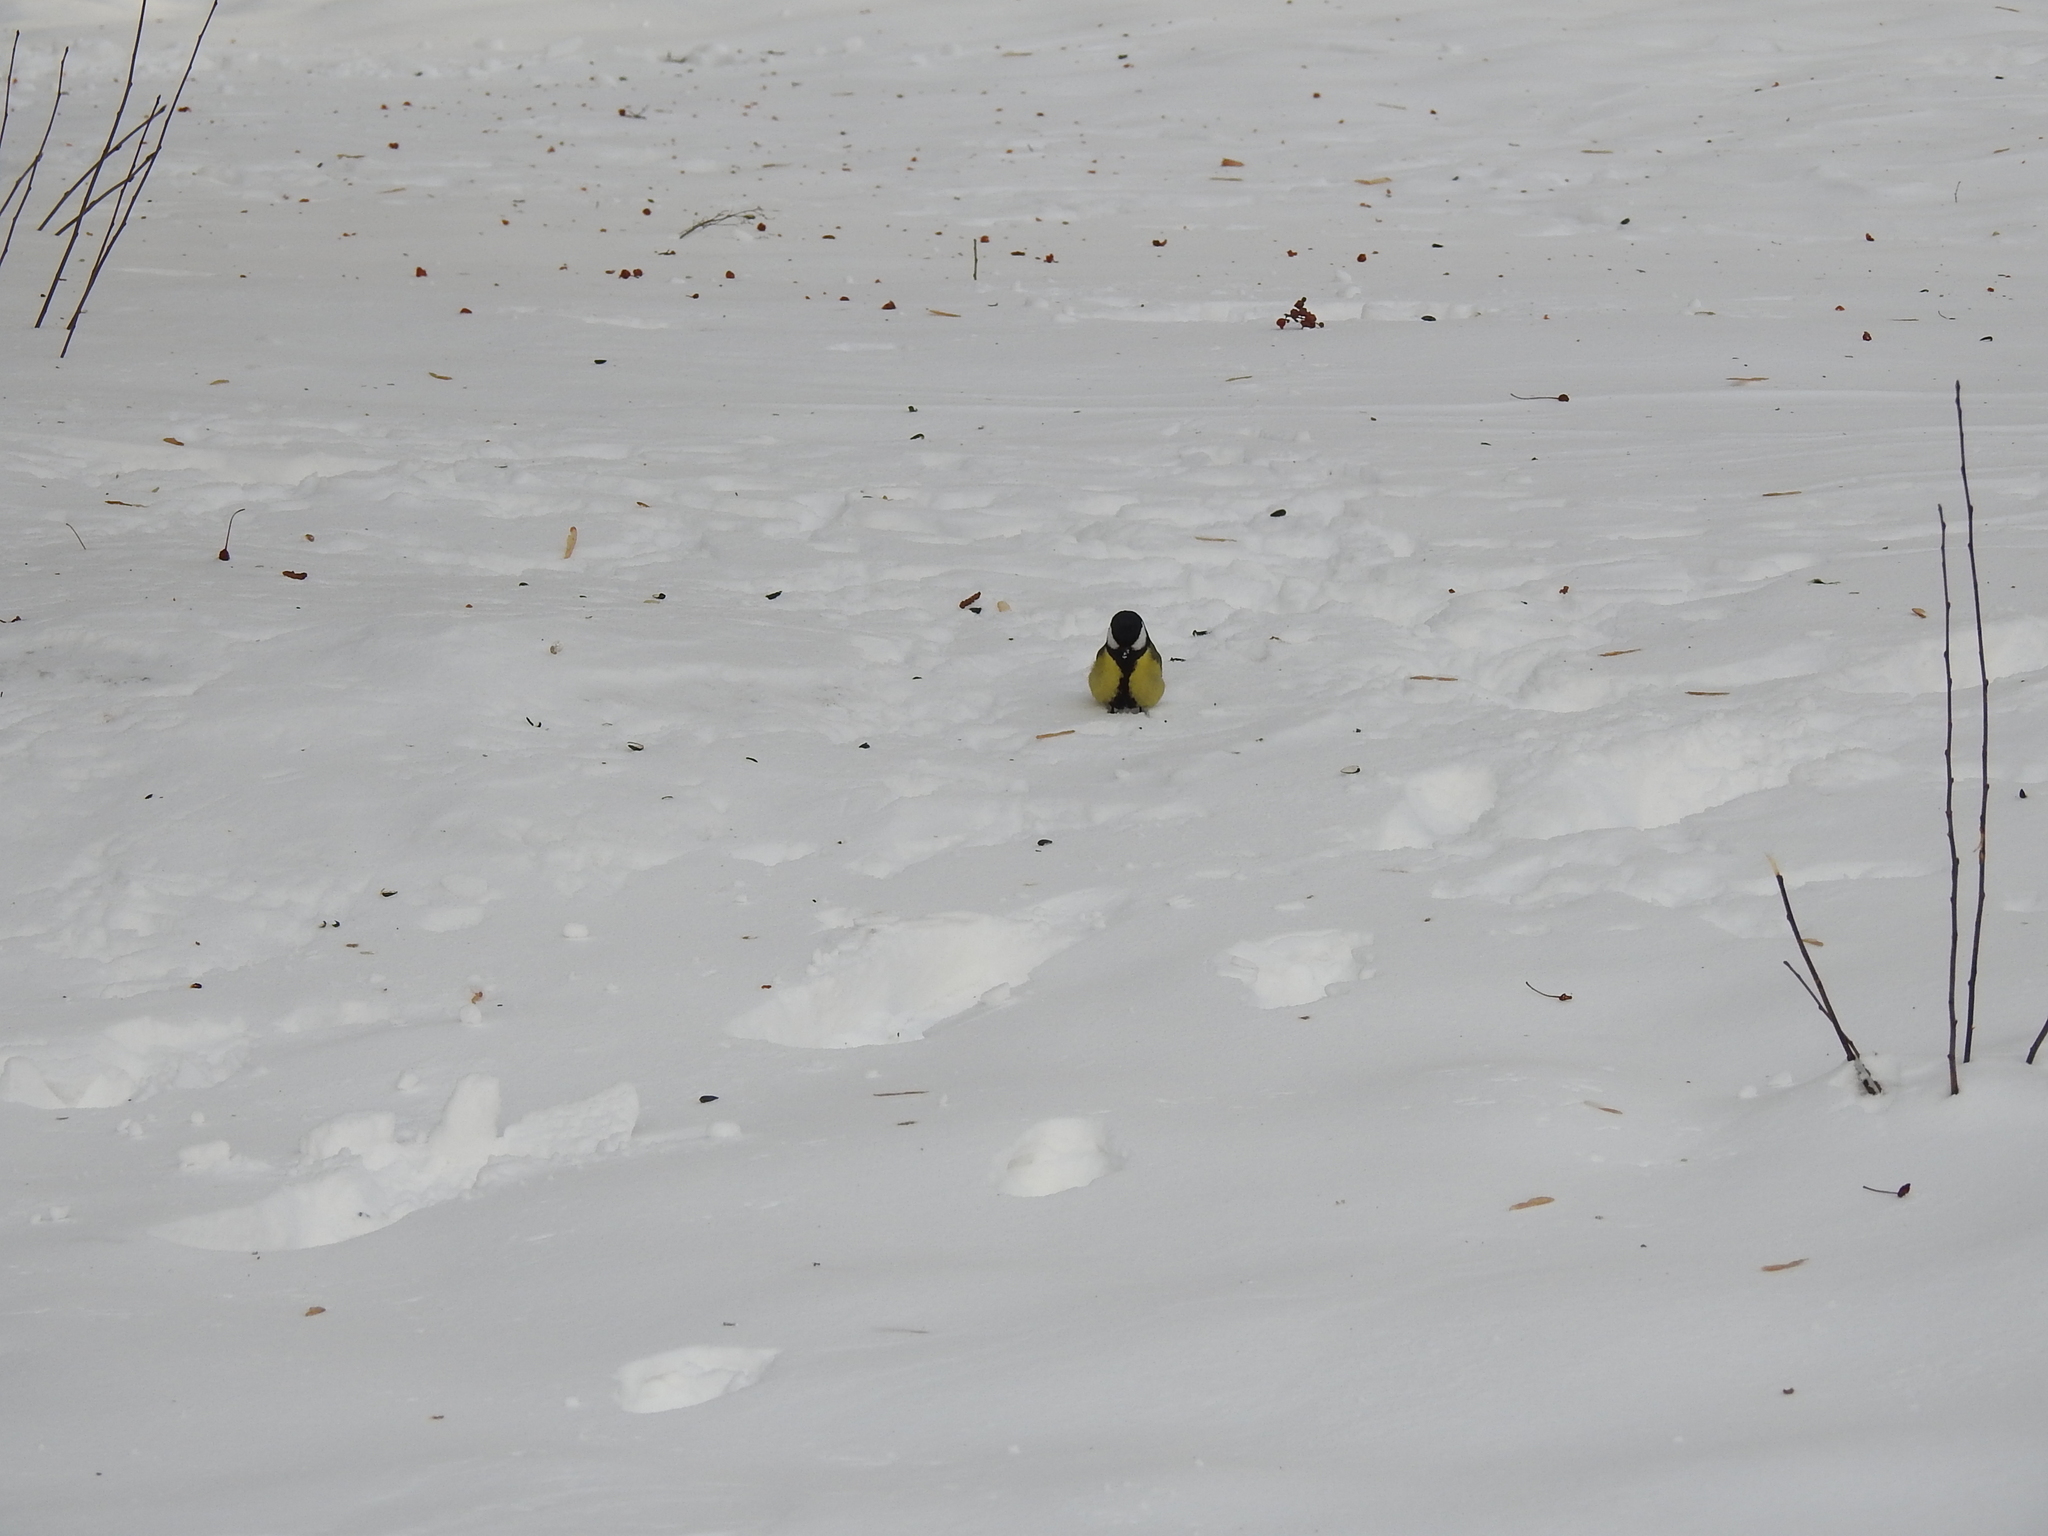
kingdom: Animalia
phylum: Chordata
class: Aves
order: Passeriformes
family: Paridae
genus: Parus
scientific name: Parus major
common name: Great tit
